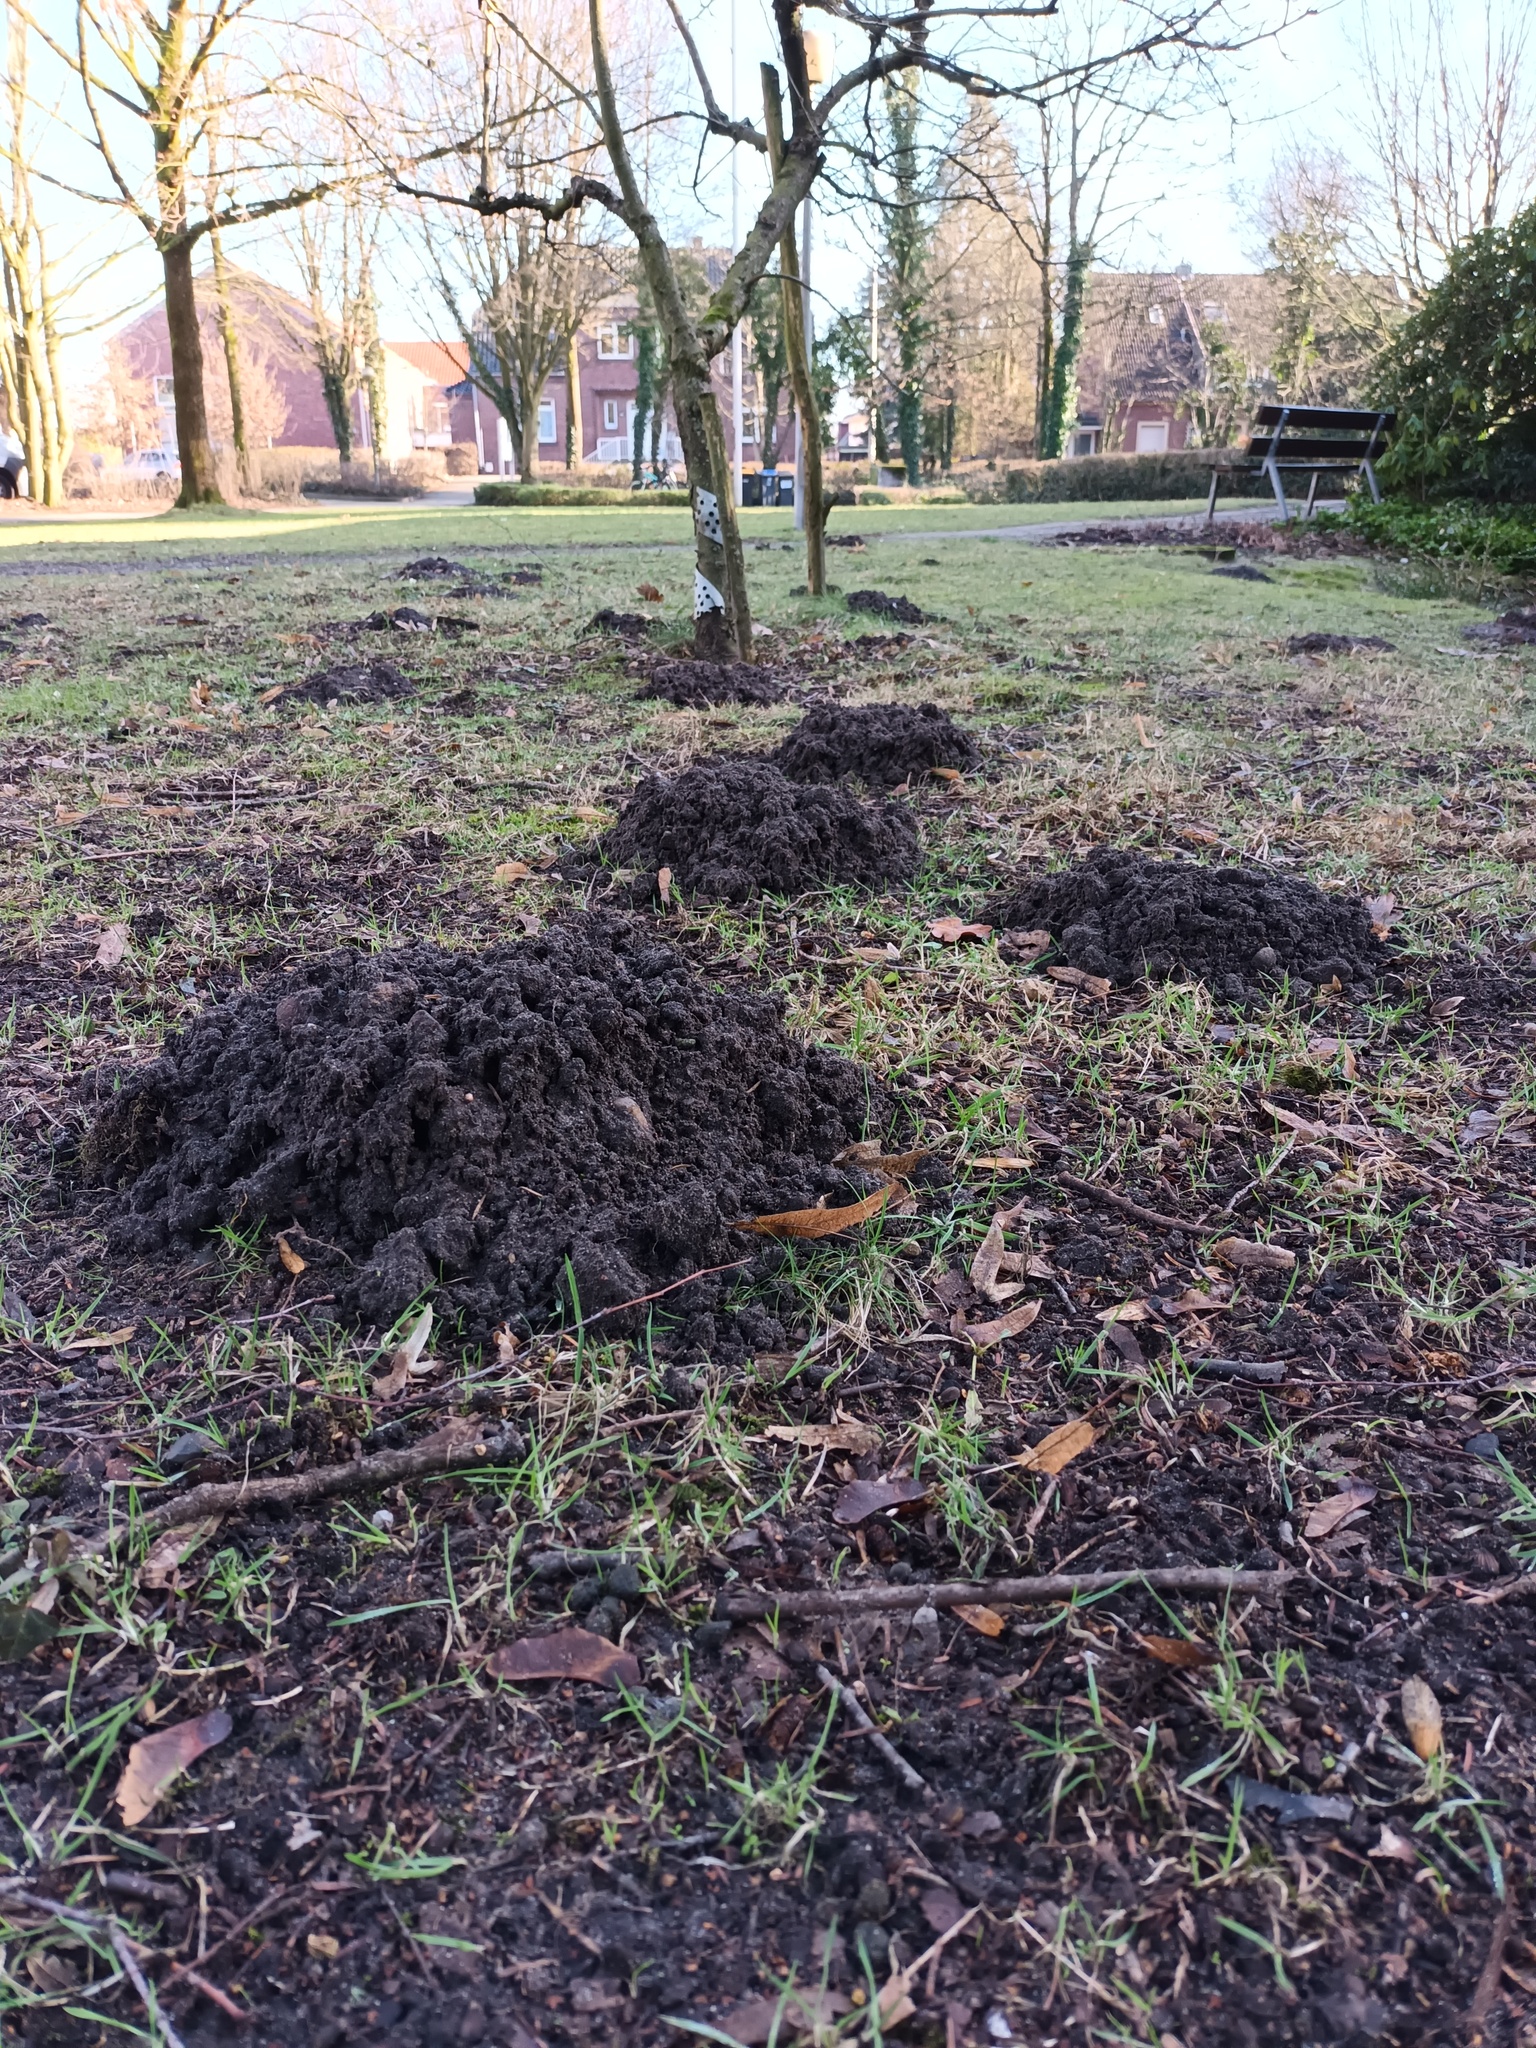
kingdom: Animalia
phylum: Chordata
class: Mammalia
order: Soricomorpha
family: Talpidae
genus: Talpa
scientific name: Talpa europaea
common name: European mole
